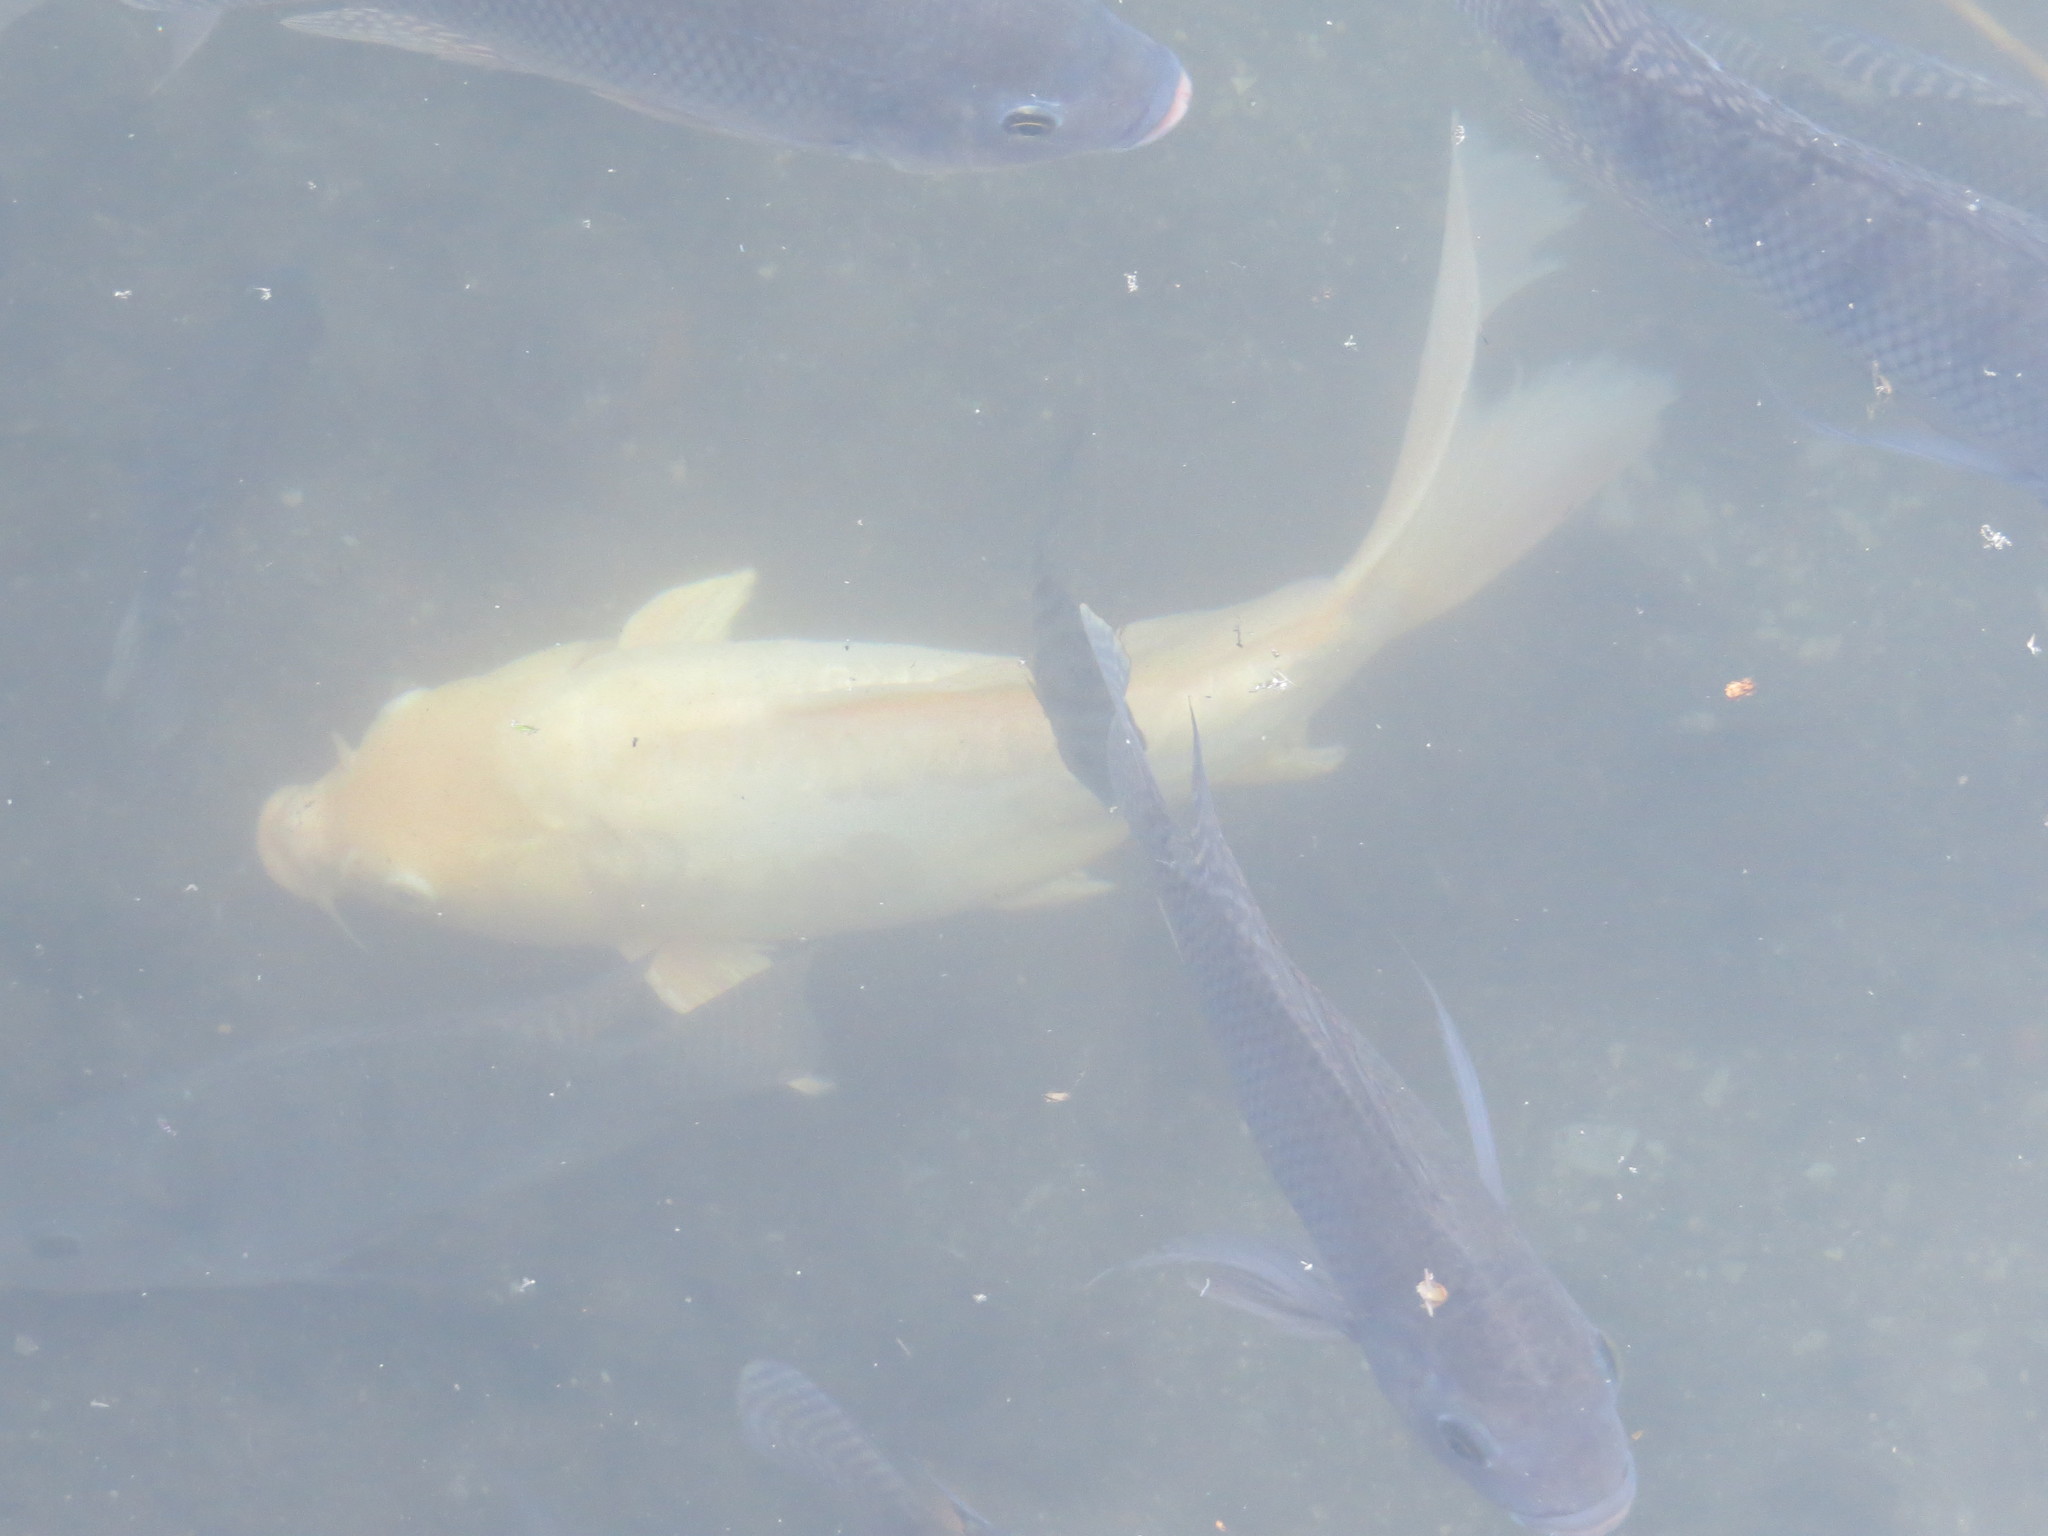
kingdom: Animalia
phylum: Chordata
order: Cypriniformes
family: Cyprinidae
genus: Cyprinus
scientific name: Cyprinus rubrofuscus
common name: Koi
